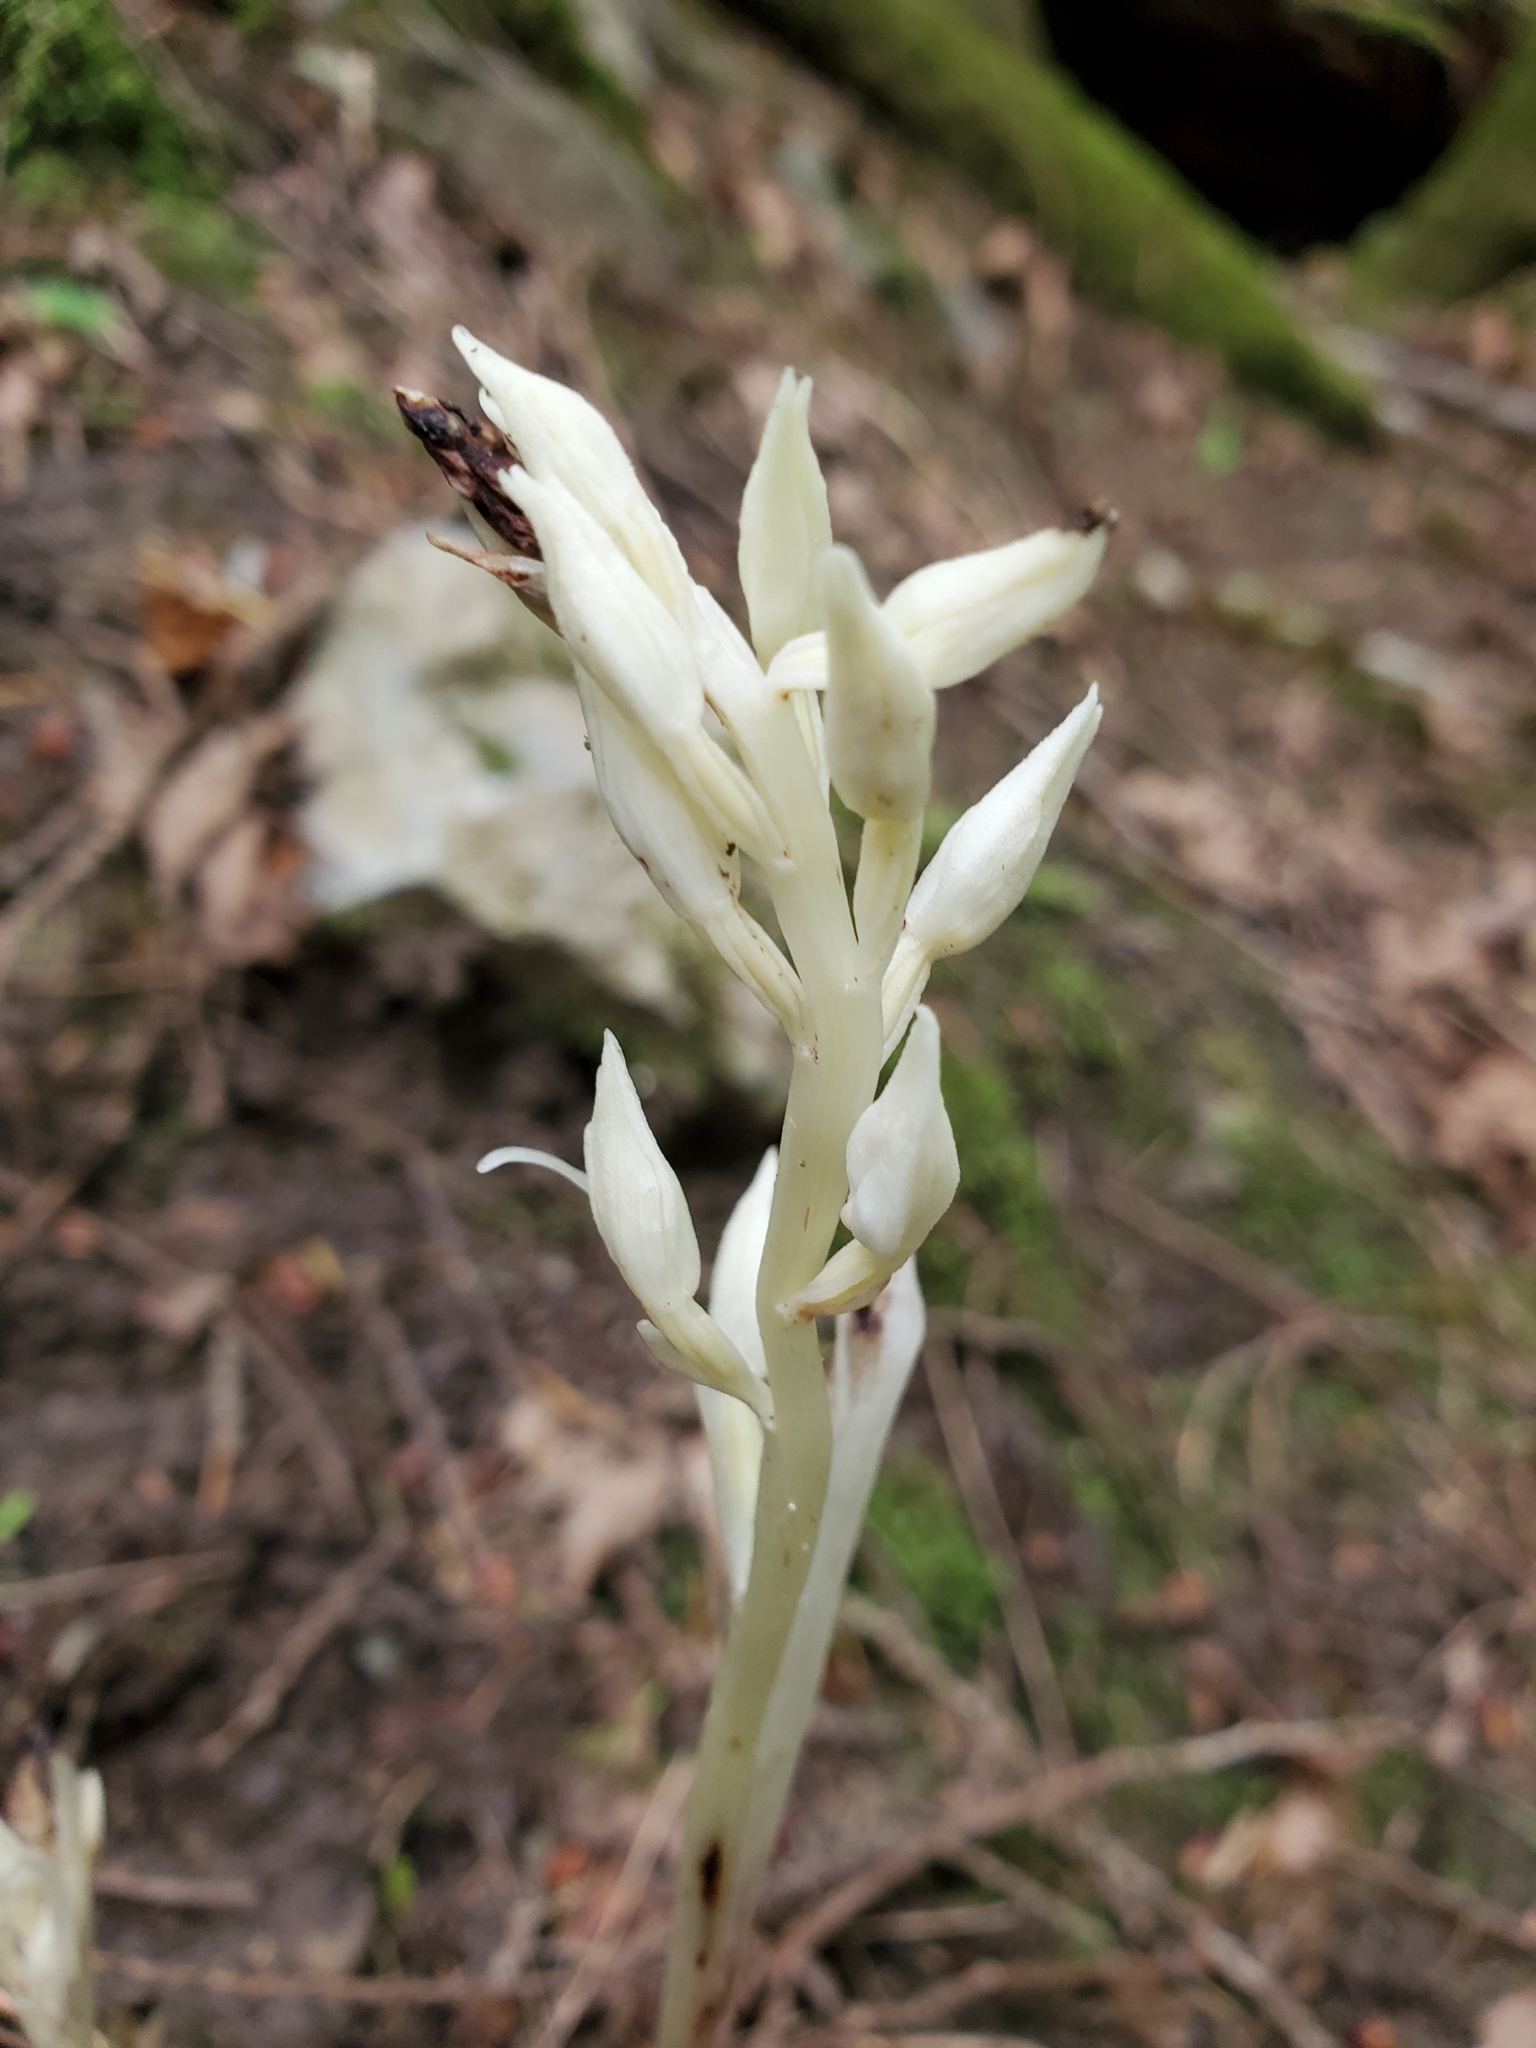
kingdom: Plantae
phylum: Tracheophyta
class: Liliopsida
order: Asparagales
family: Orchidaceae
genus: Cephalanthera
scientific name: Cephalanthera austiniae
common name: Phantom orchid
